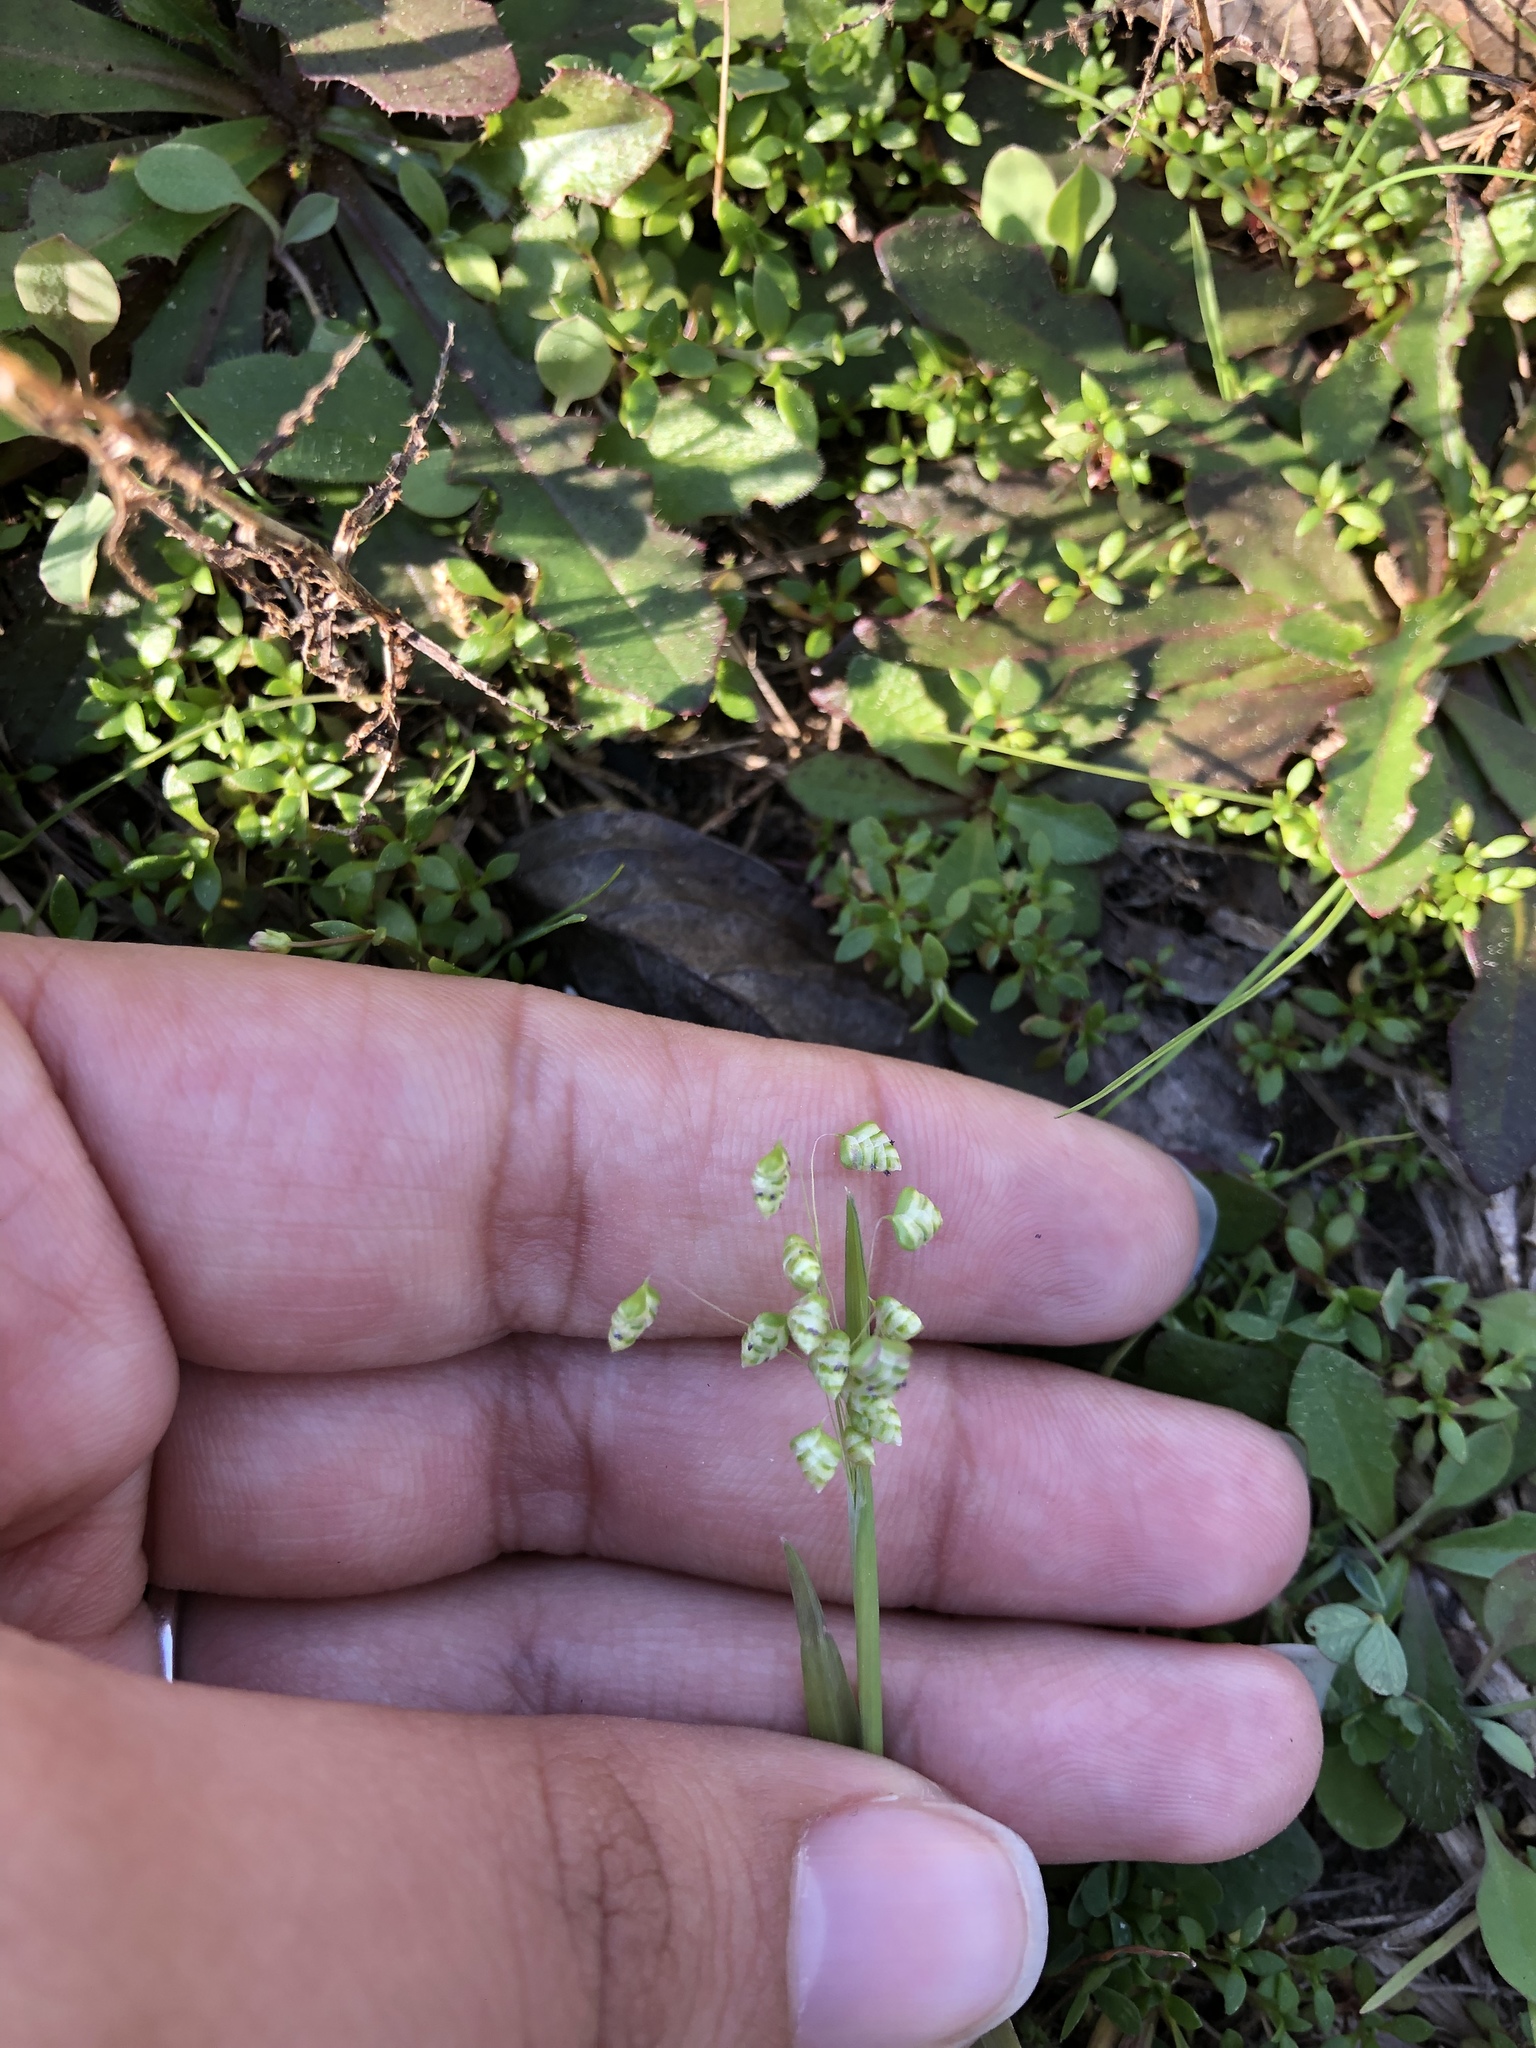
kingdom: Plantae
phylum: Tracheophyta
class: Liliopsida
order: Poales
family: Poaceae
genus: Briza
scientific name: Briza minor
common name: Lesser quaking-grass
